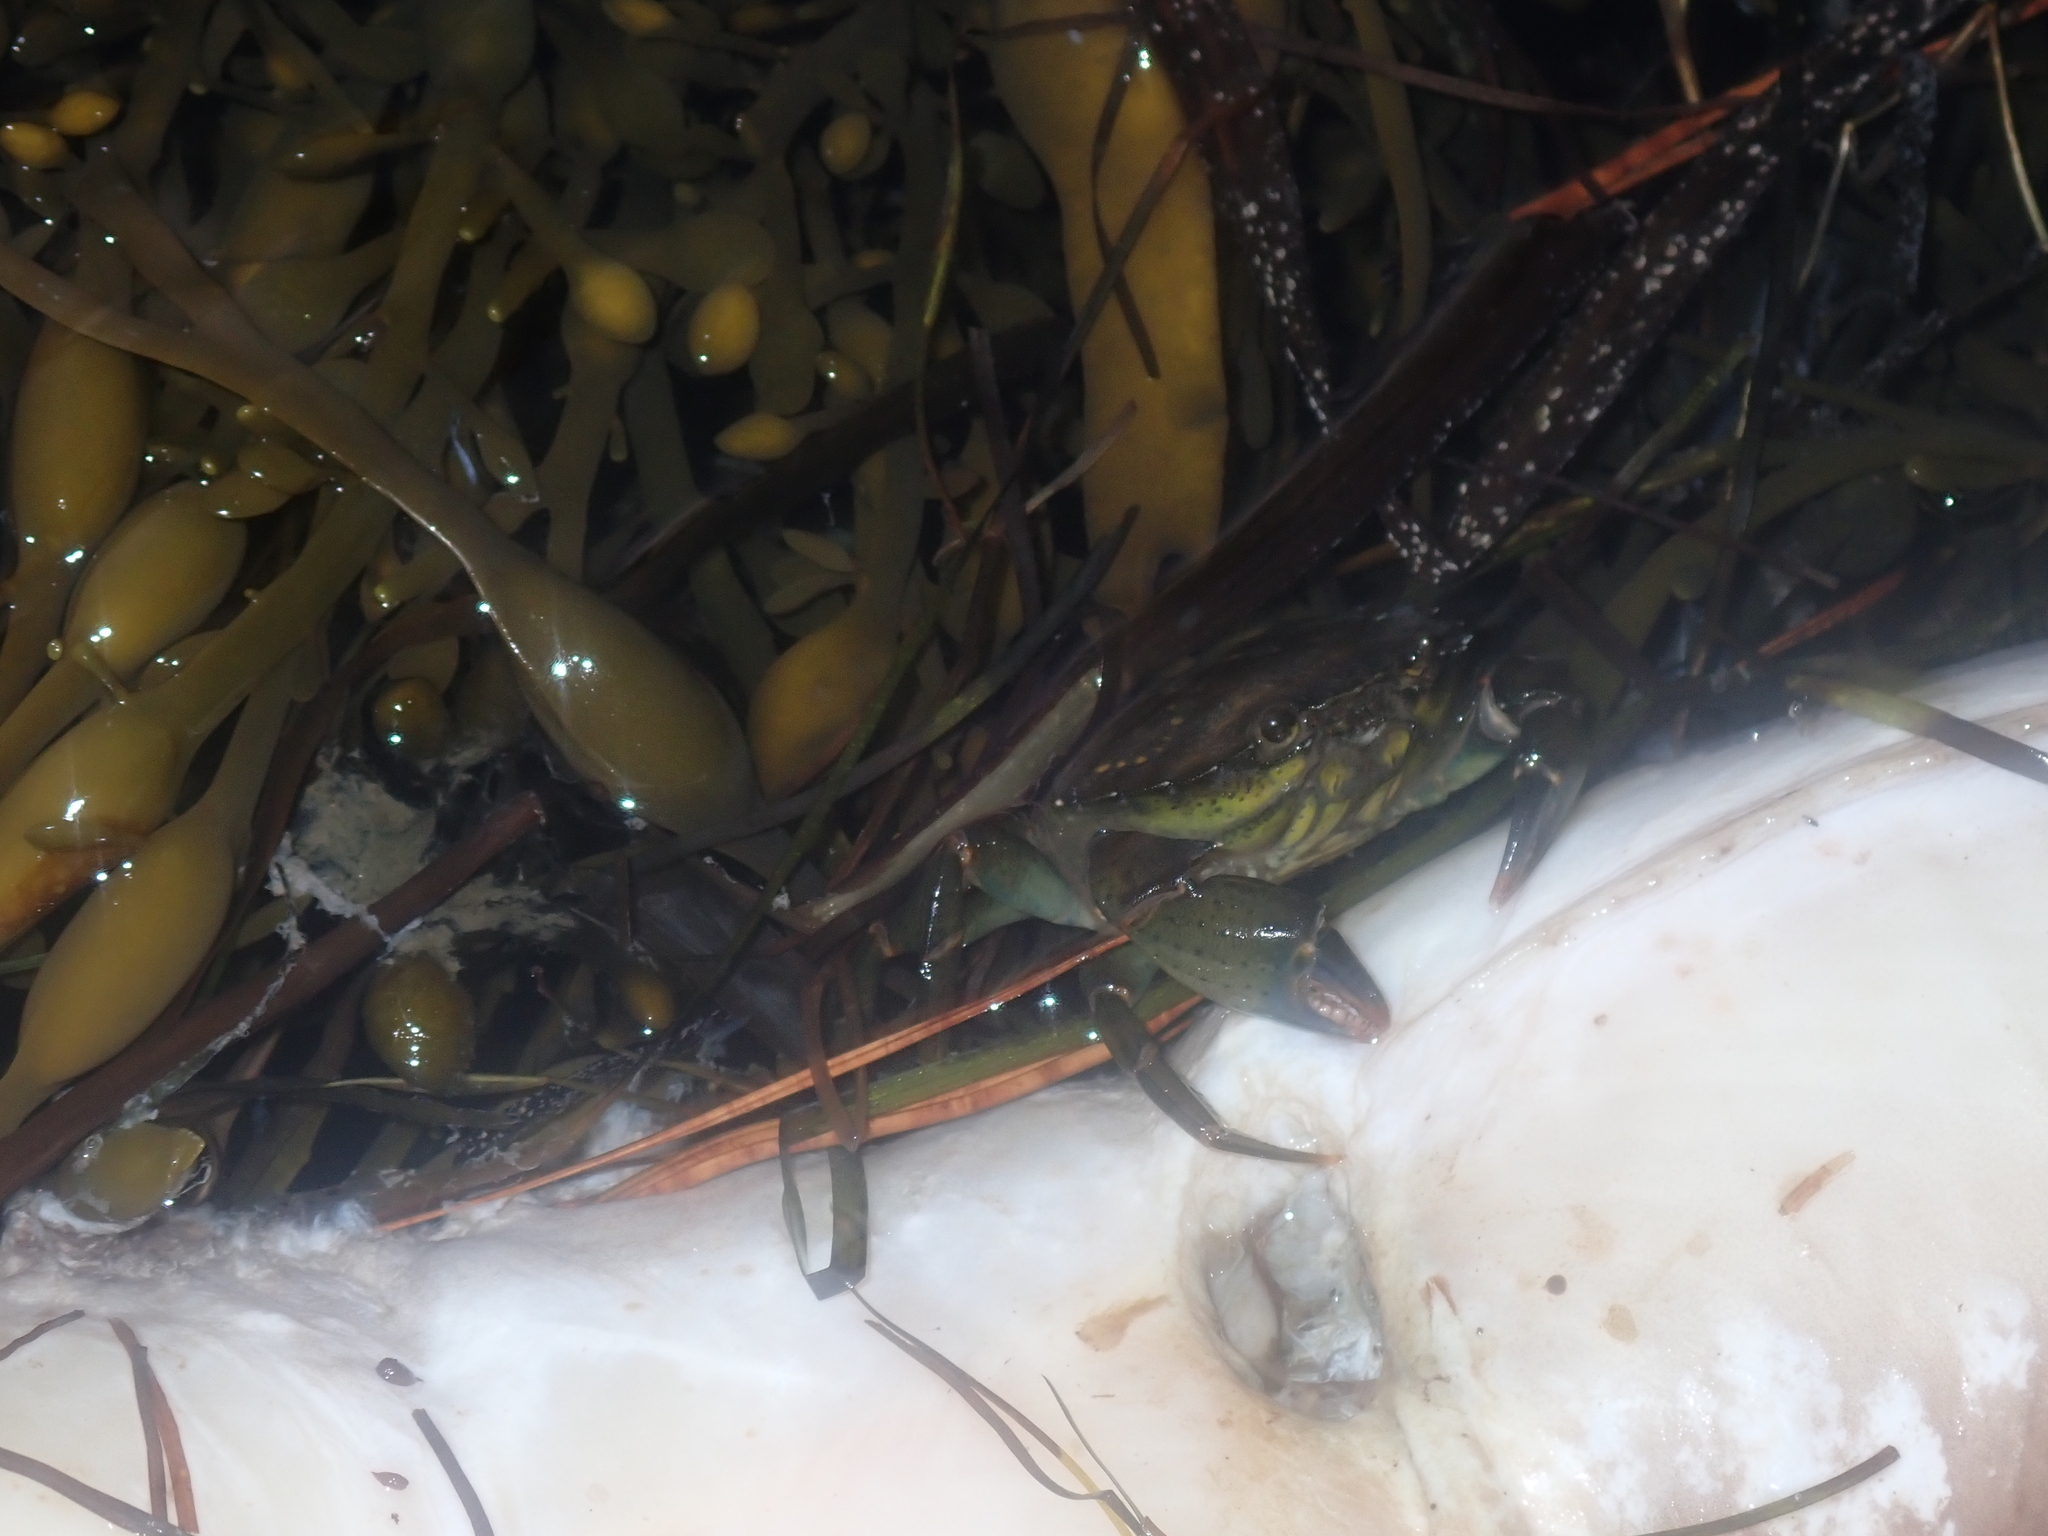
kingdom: Animalia
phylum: Arthropoda
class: Malacostraca
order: Decapoda
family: Carcinidae
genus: Carcinus
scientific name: Carcinus maenas
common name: European green crab
